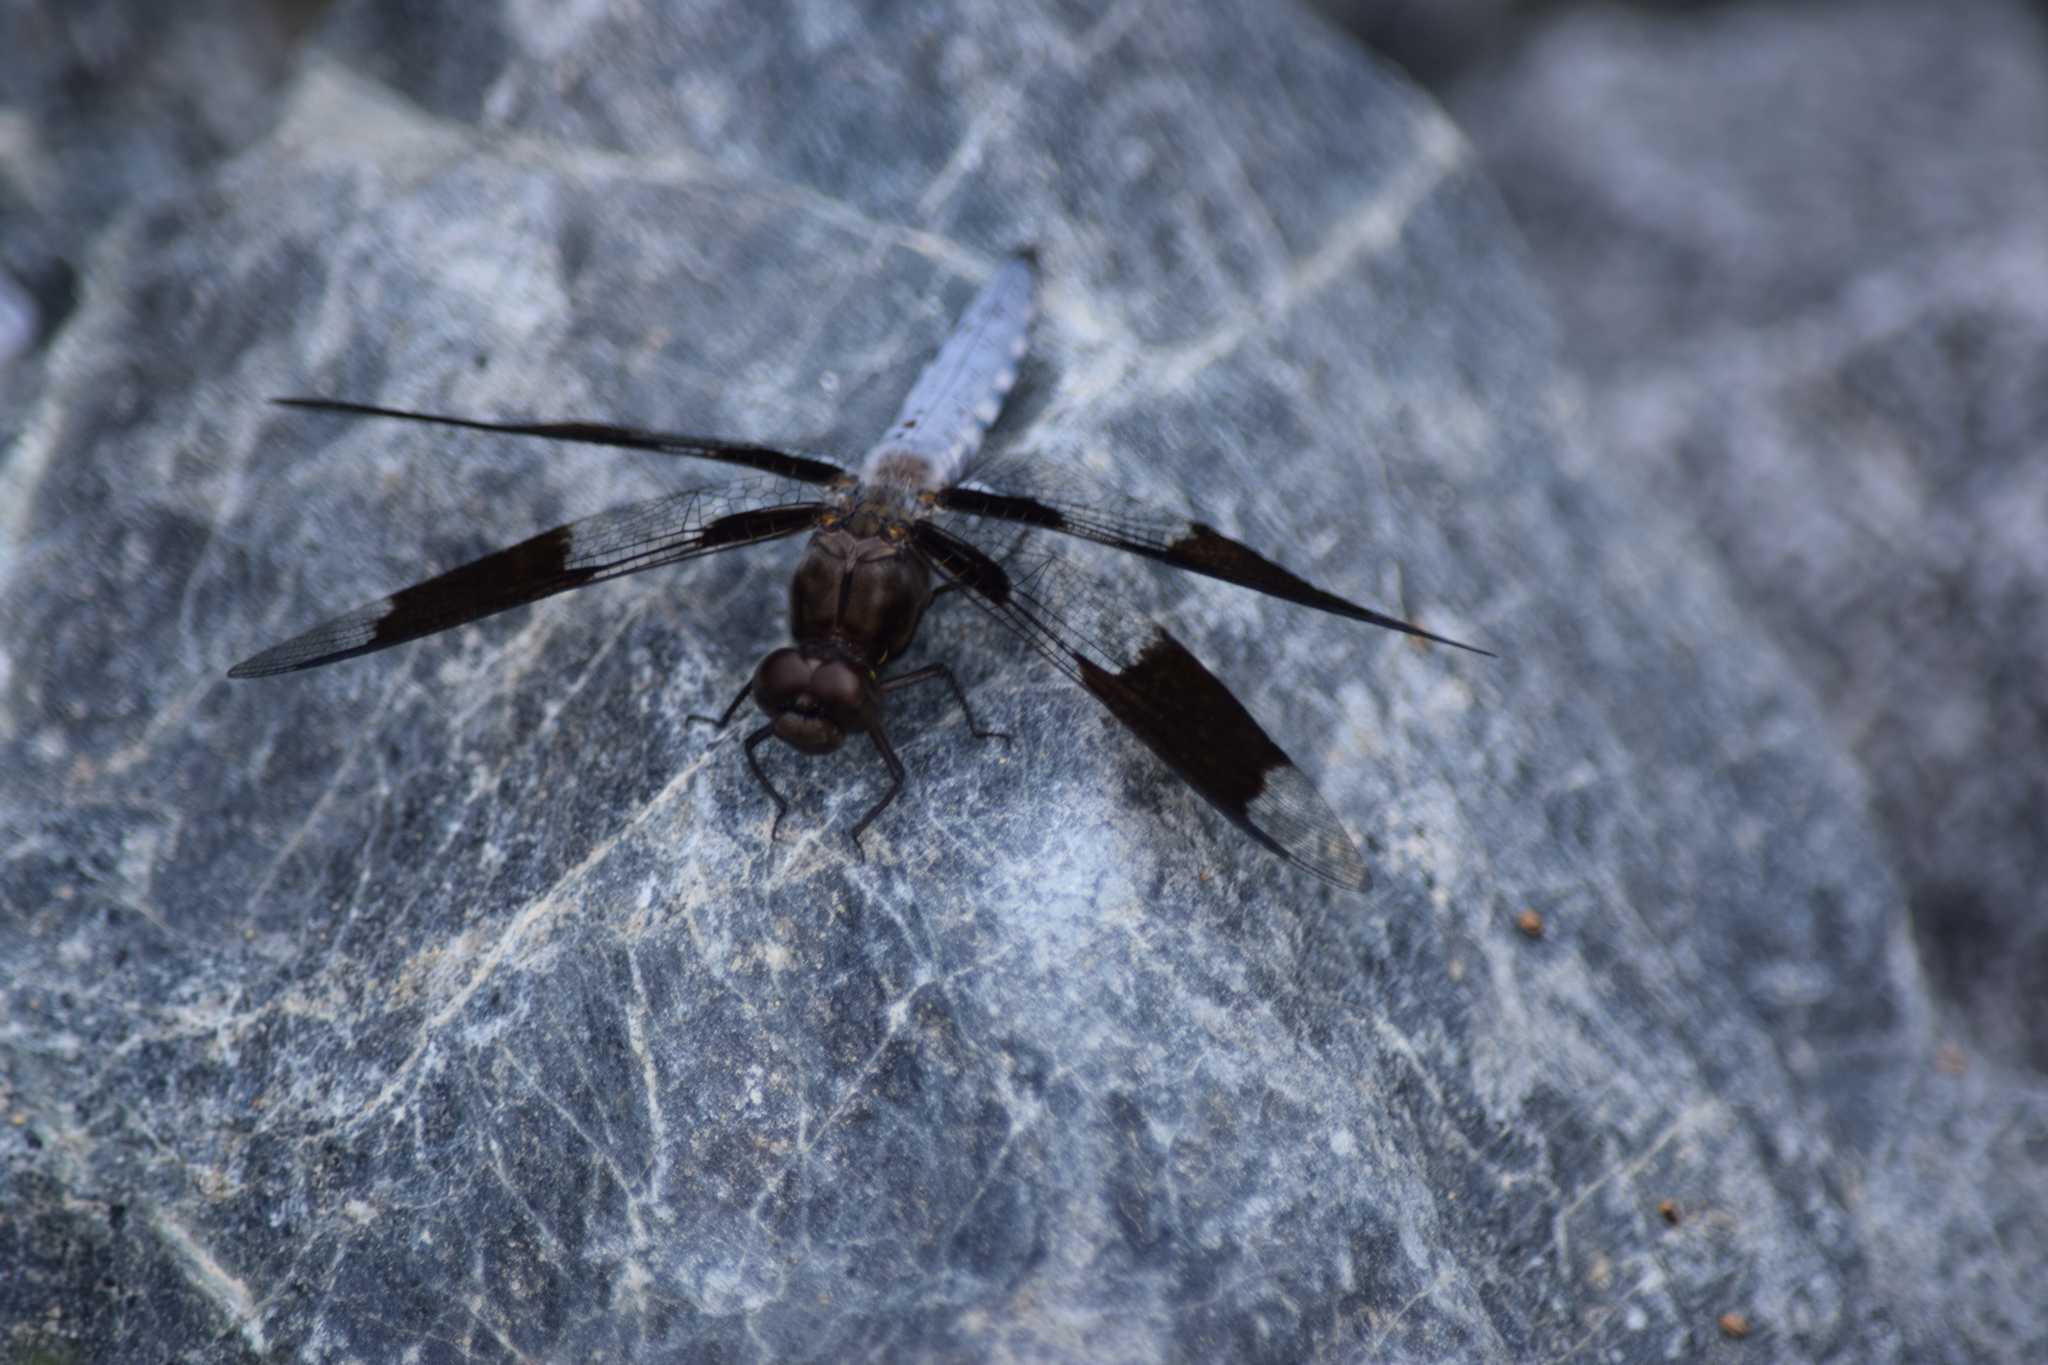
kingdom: Animalia
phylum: Arthropoda
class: Insecta
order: Odonata
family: Libellulidae
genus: Plathemis
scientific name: Plathemis lydia
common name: Common whitetail
